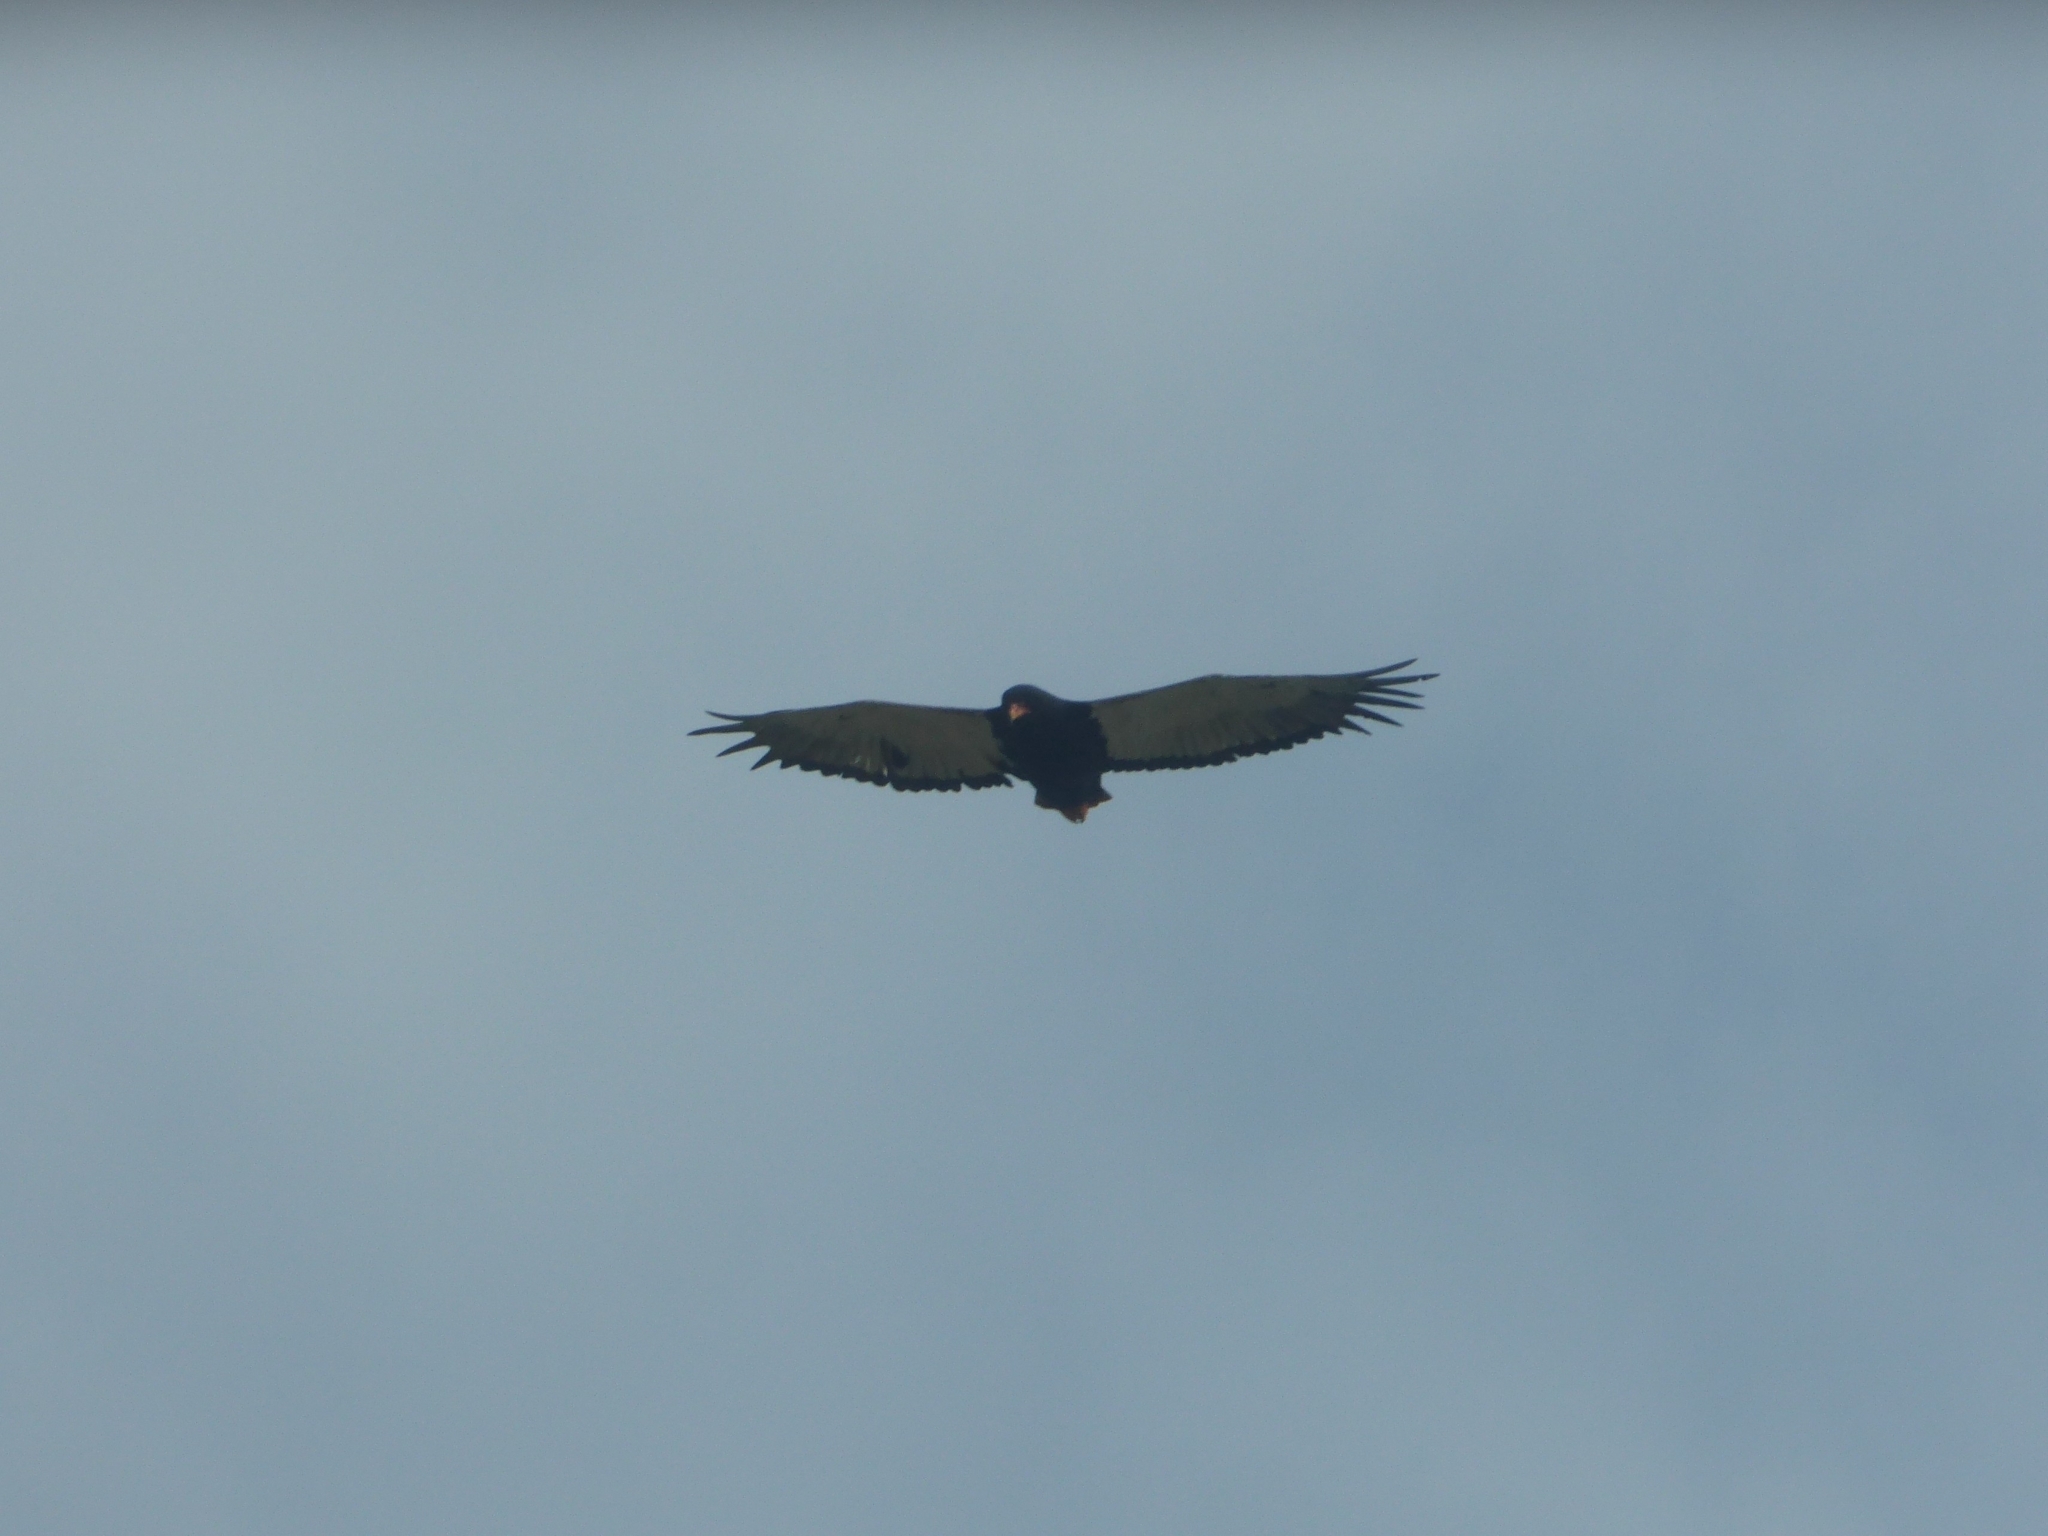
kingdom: Animalia
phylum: Chordata
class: Aves
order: Accipitriformes
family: Accipitridae
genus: Terathopius
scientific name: Terathopius ecaudatus
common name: Bateleur
